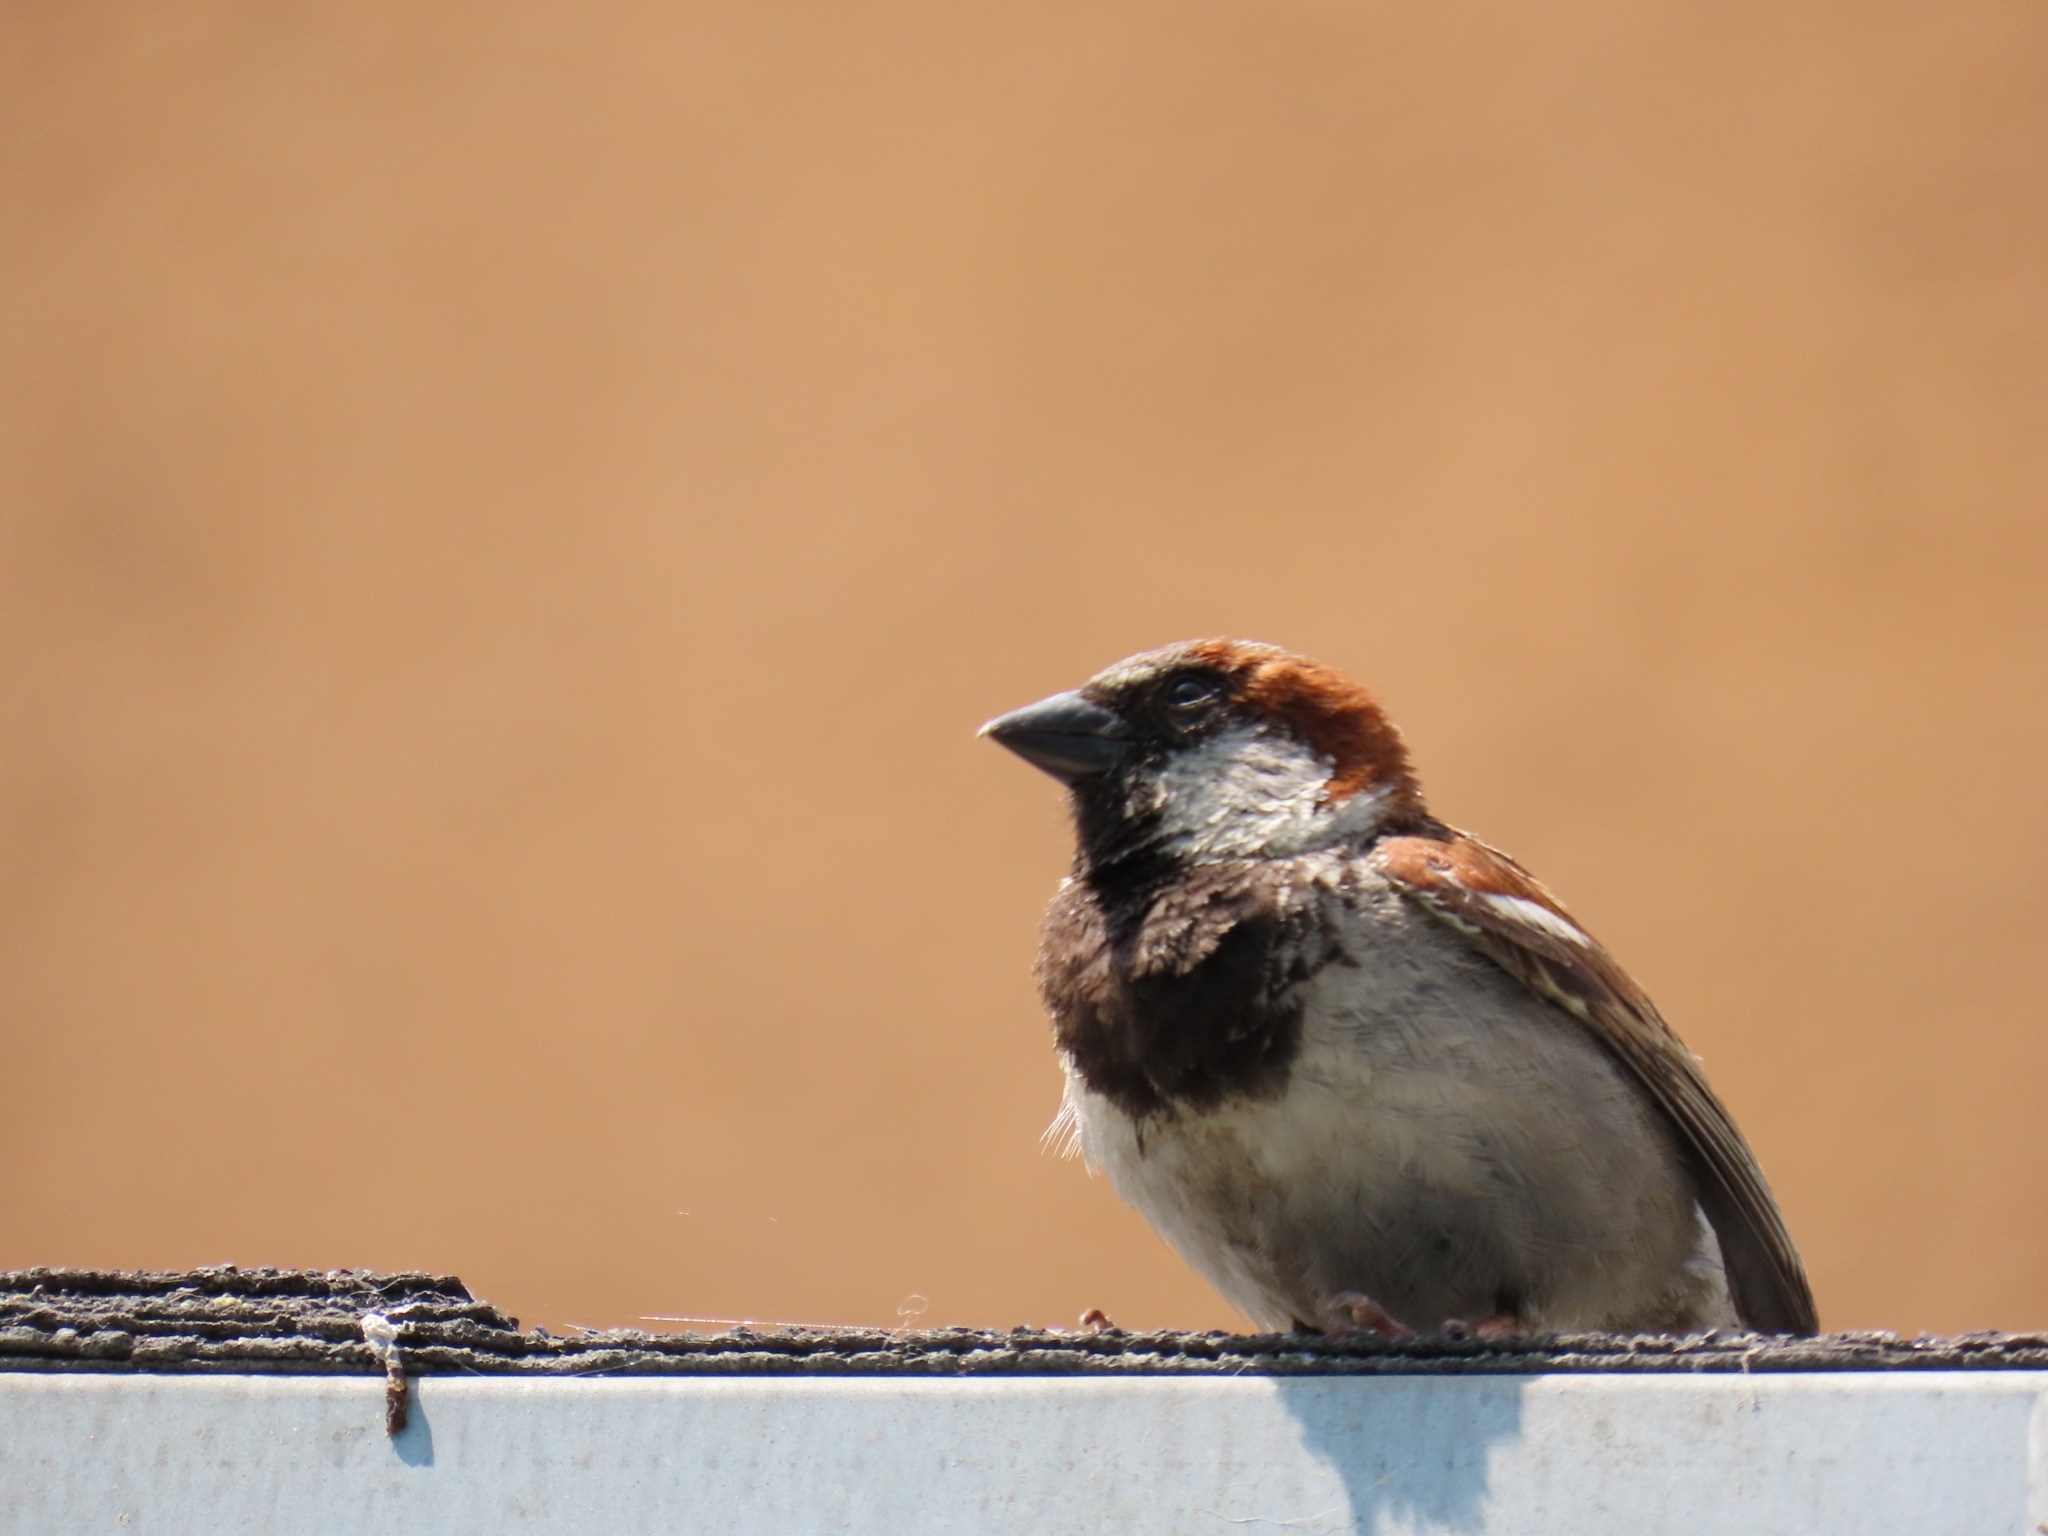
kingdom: Animalia
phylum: Chordata
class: Aves
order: Passeriformes
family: Passeridae
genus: Passer
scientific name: Passer domesticus
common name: House sparrow
